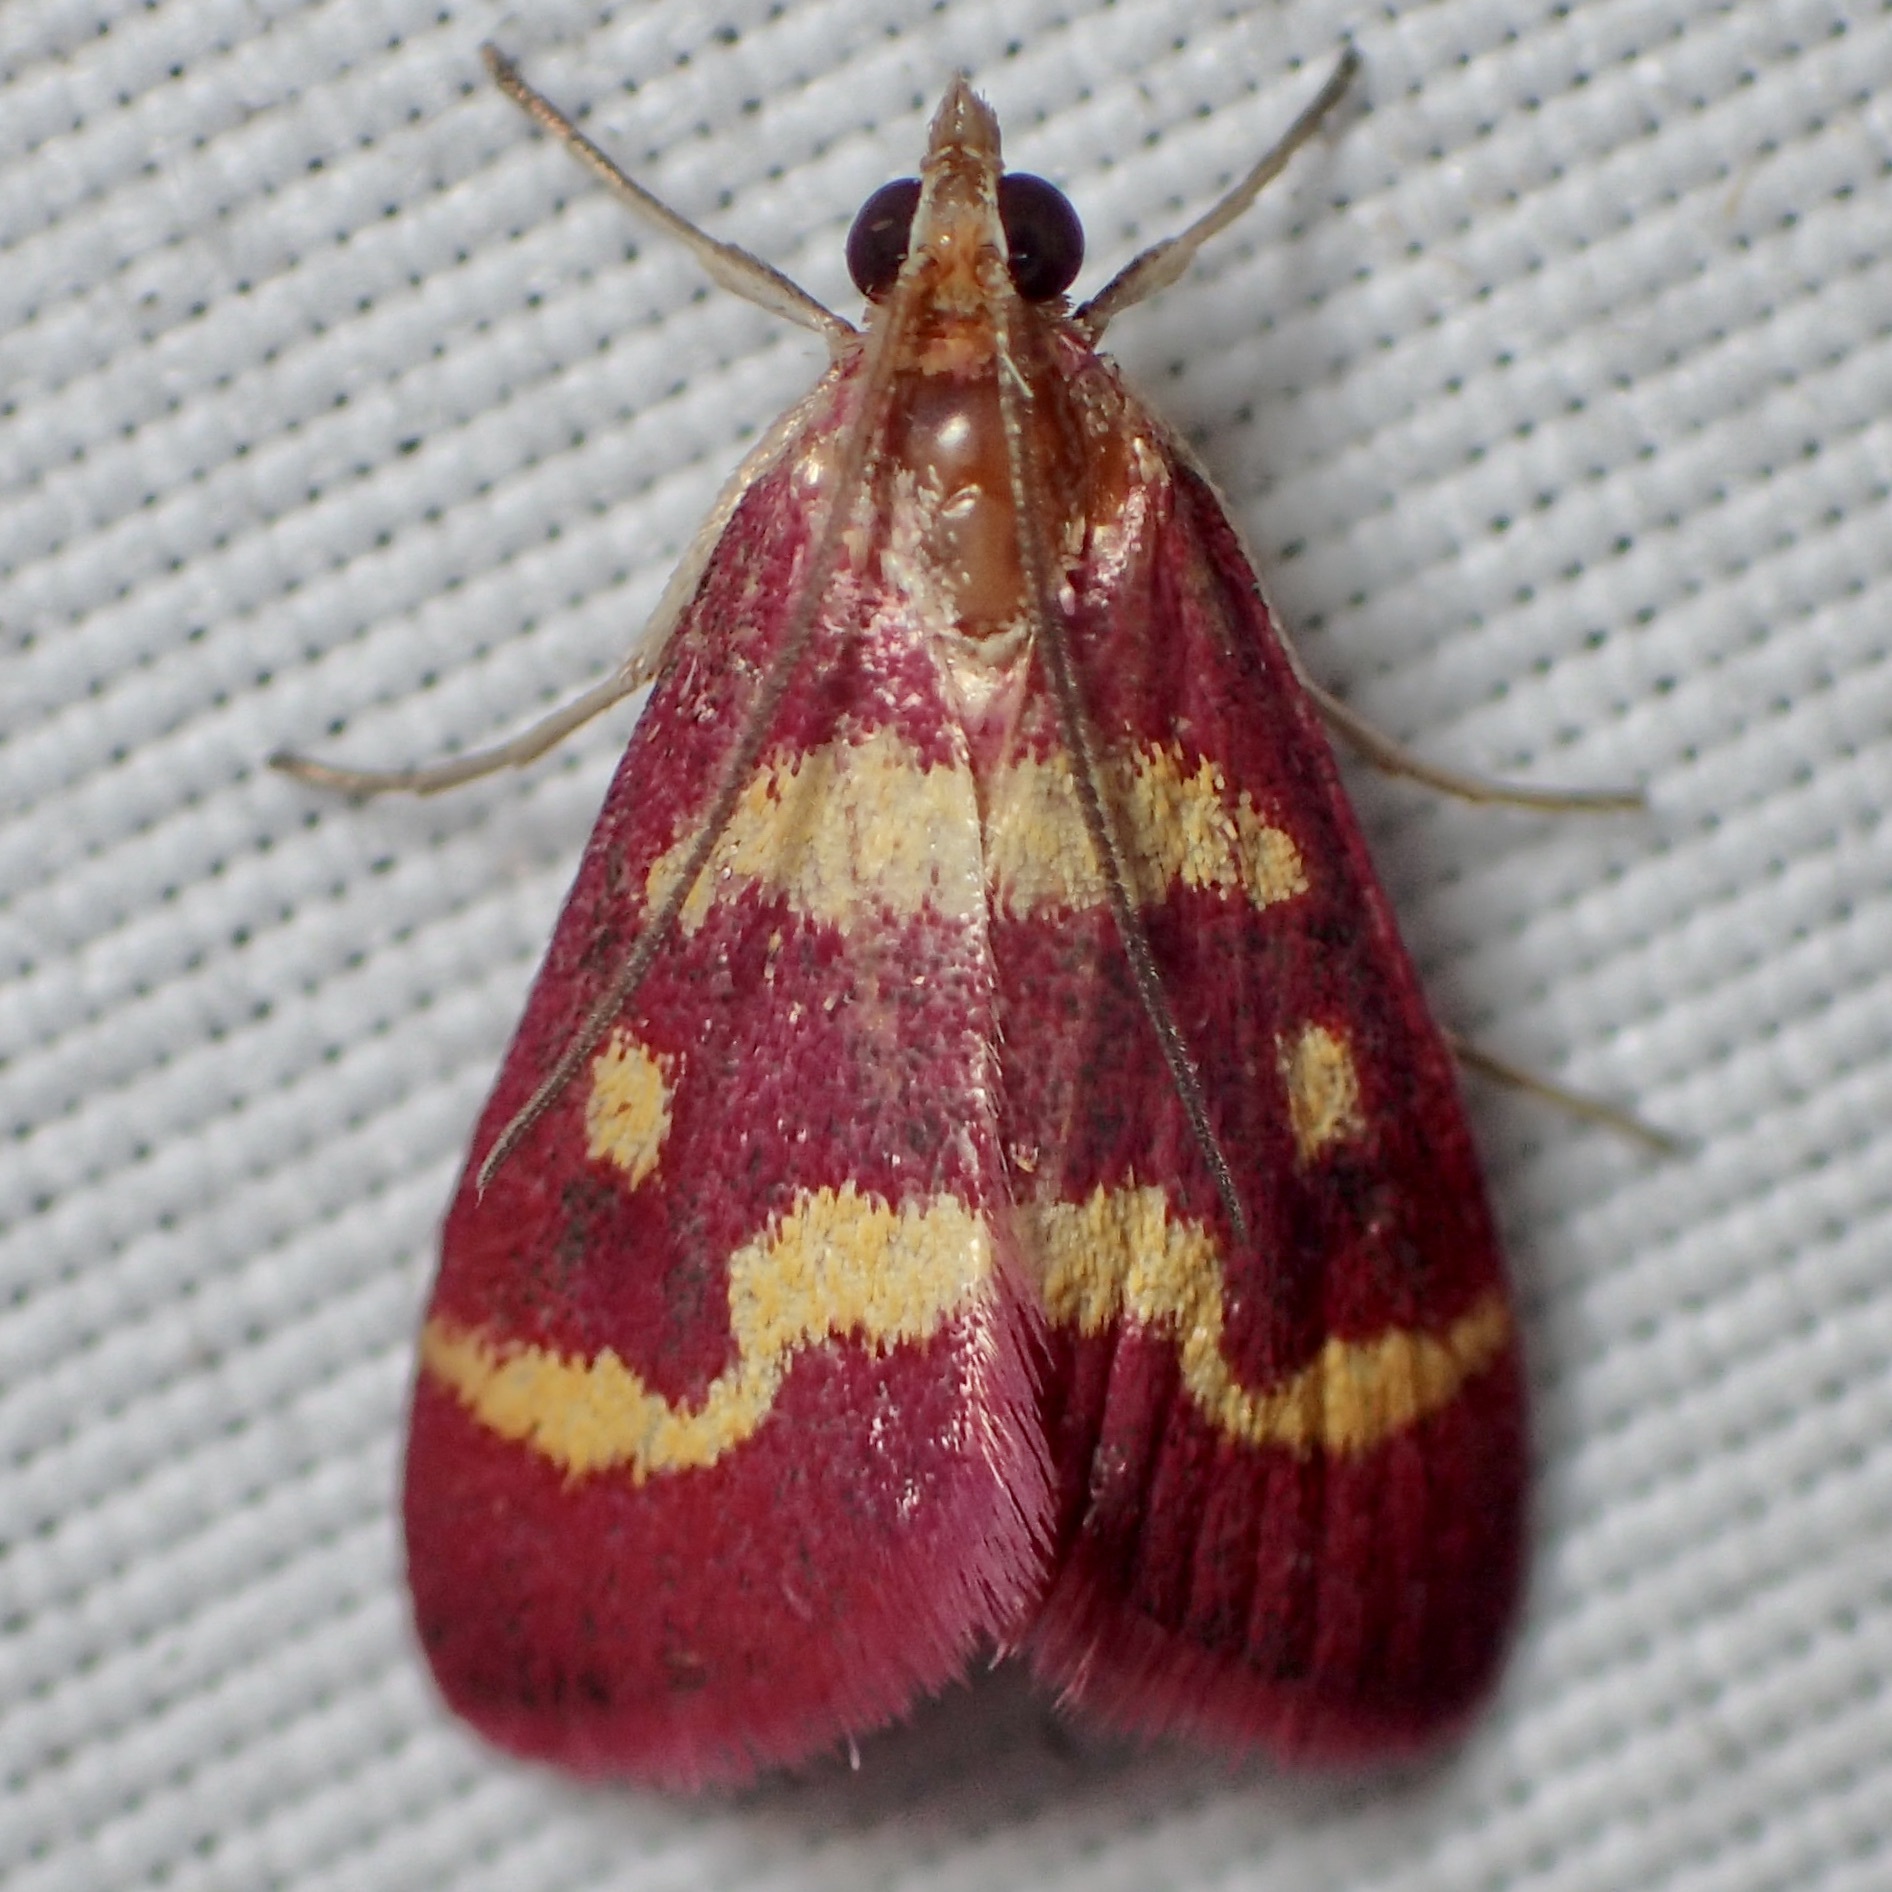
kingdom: Animalia
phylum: Arthropoda
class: Insecta
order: Lepidoptera
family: Crambidae
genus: Pyrausta
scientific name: Pyrausta tyralis
